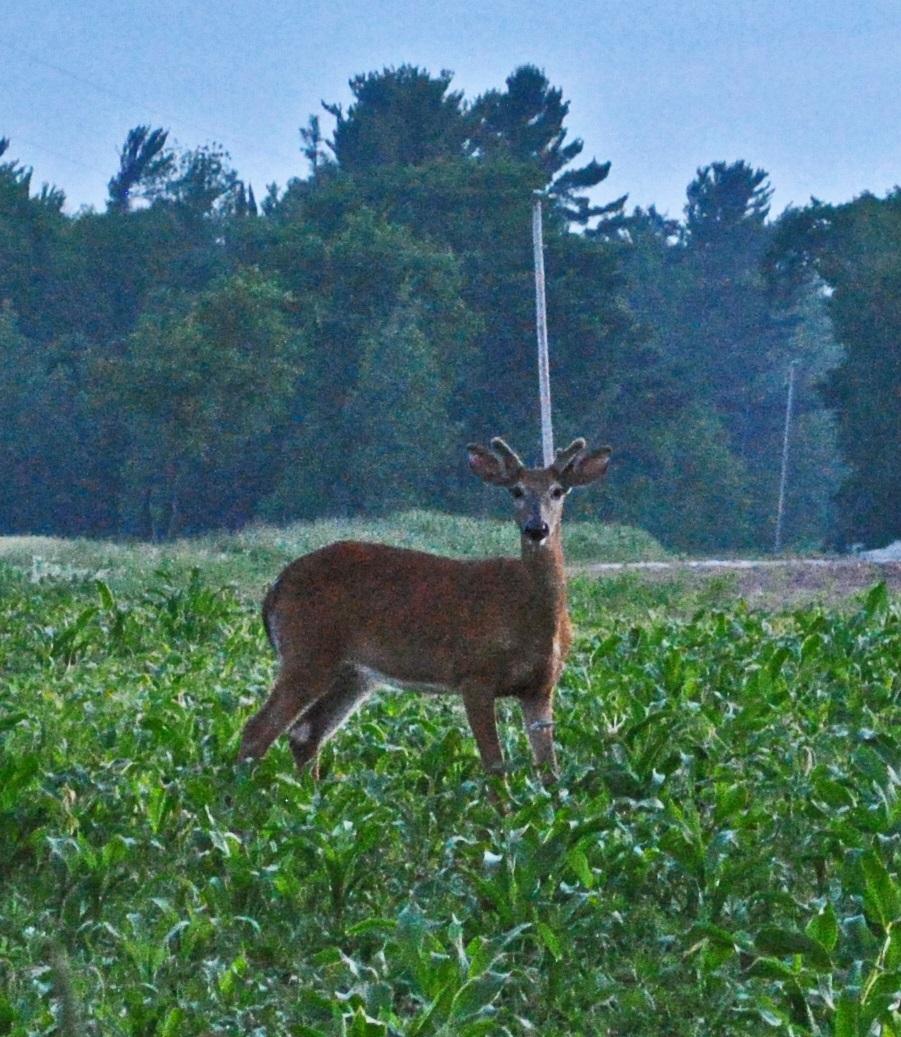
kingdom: Animalia
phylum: Chordata
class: Mammalia
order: Artiodactyla
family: Cervidae
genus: Odocoileus
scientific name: Odocoileus virginianus
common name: White-tailed deer
